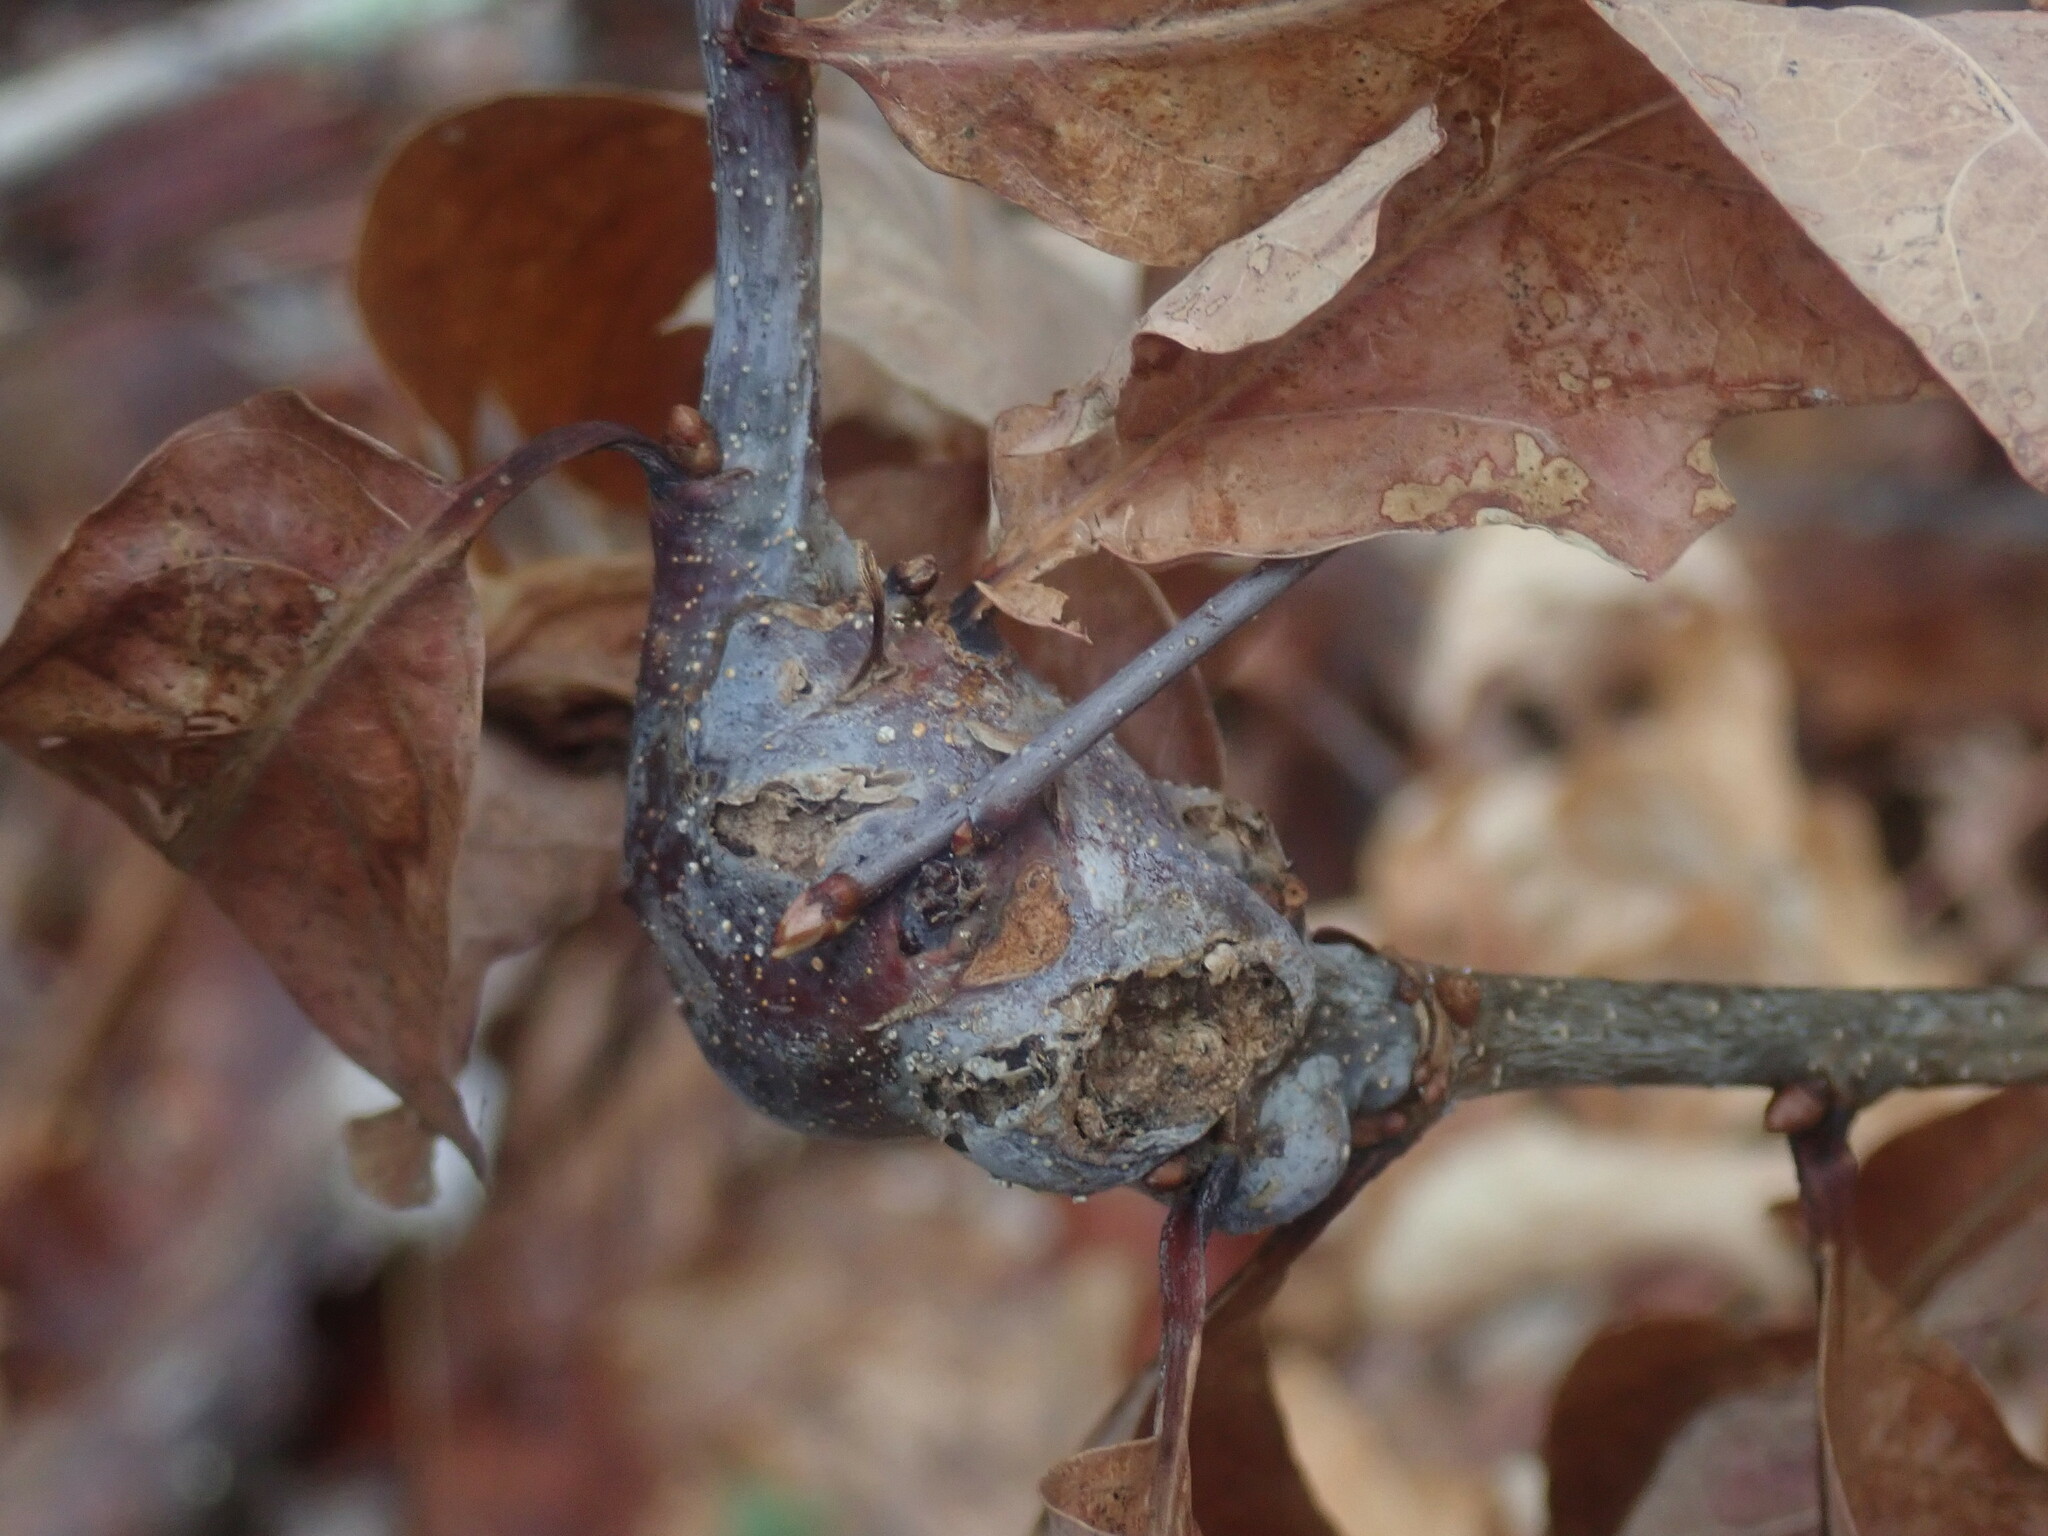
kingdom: Animalia
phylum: Arthropoda
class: Insecta
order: Hymenoptera
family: Cynipidae
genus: Neuroterus
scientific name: Neuroterus quercusbaccarum
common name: Common spangle gall
